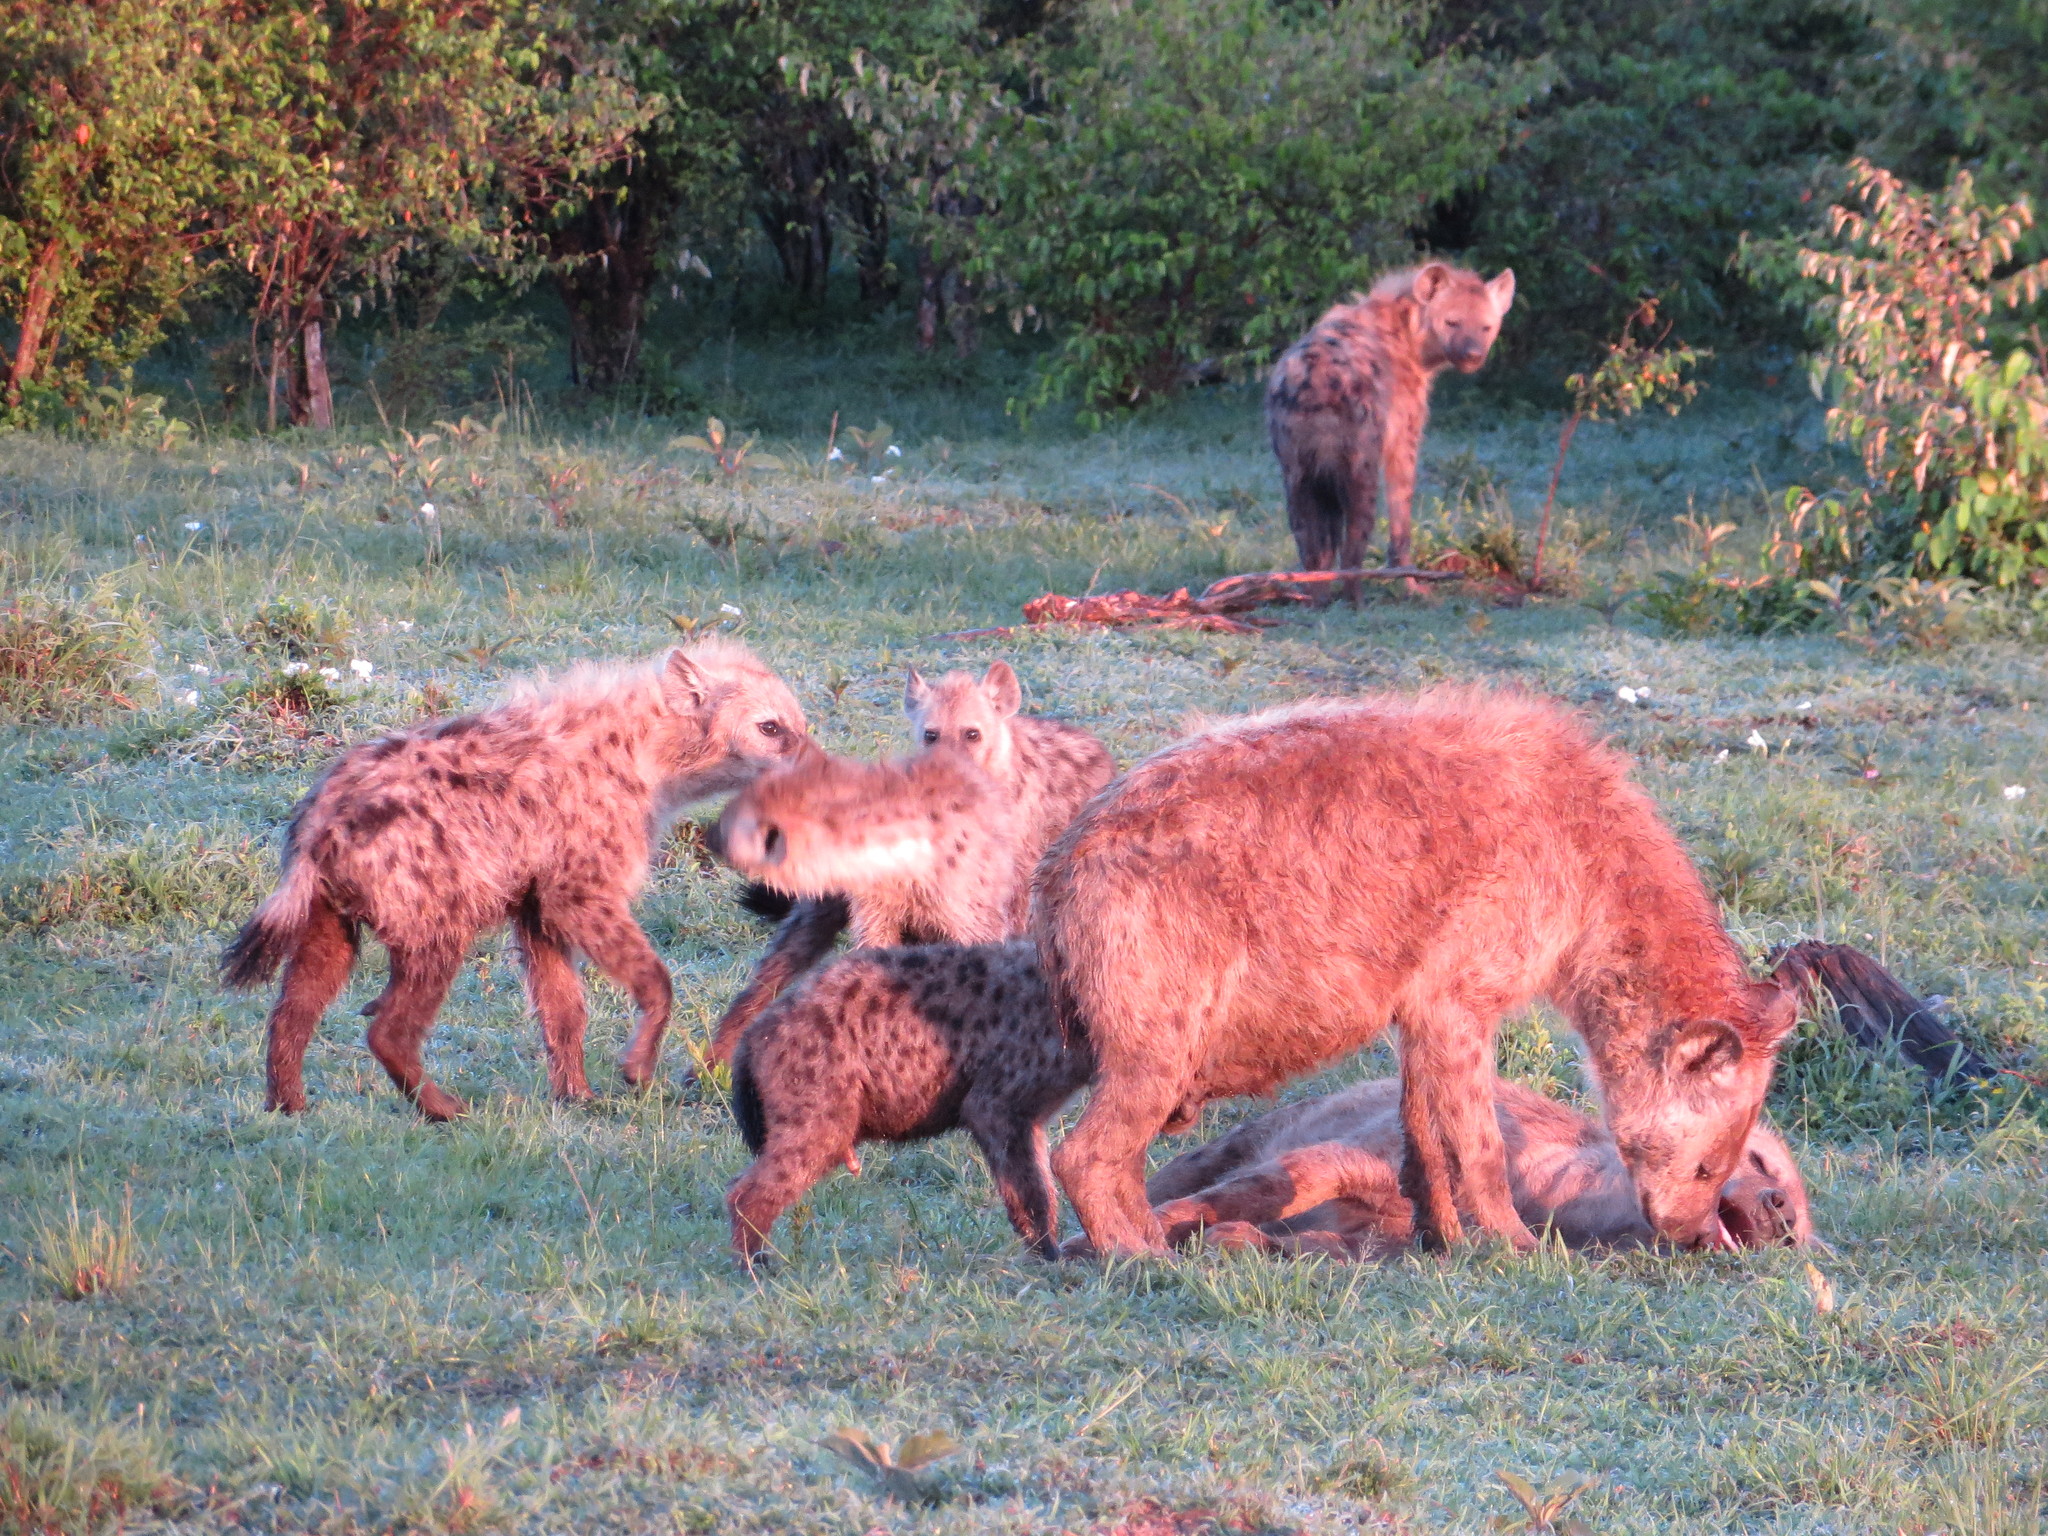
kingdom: Animalia
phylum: Chordata
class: Mammalia
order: Carnivora
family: Hyaenidae
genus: Crocuta
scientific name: Crocuta crocuta
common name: Spotted hyaena
